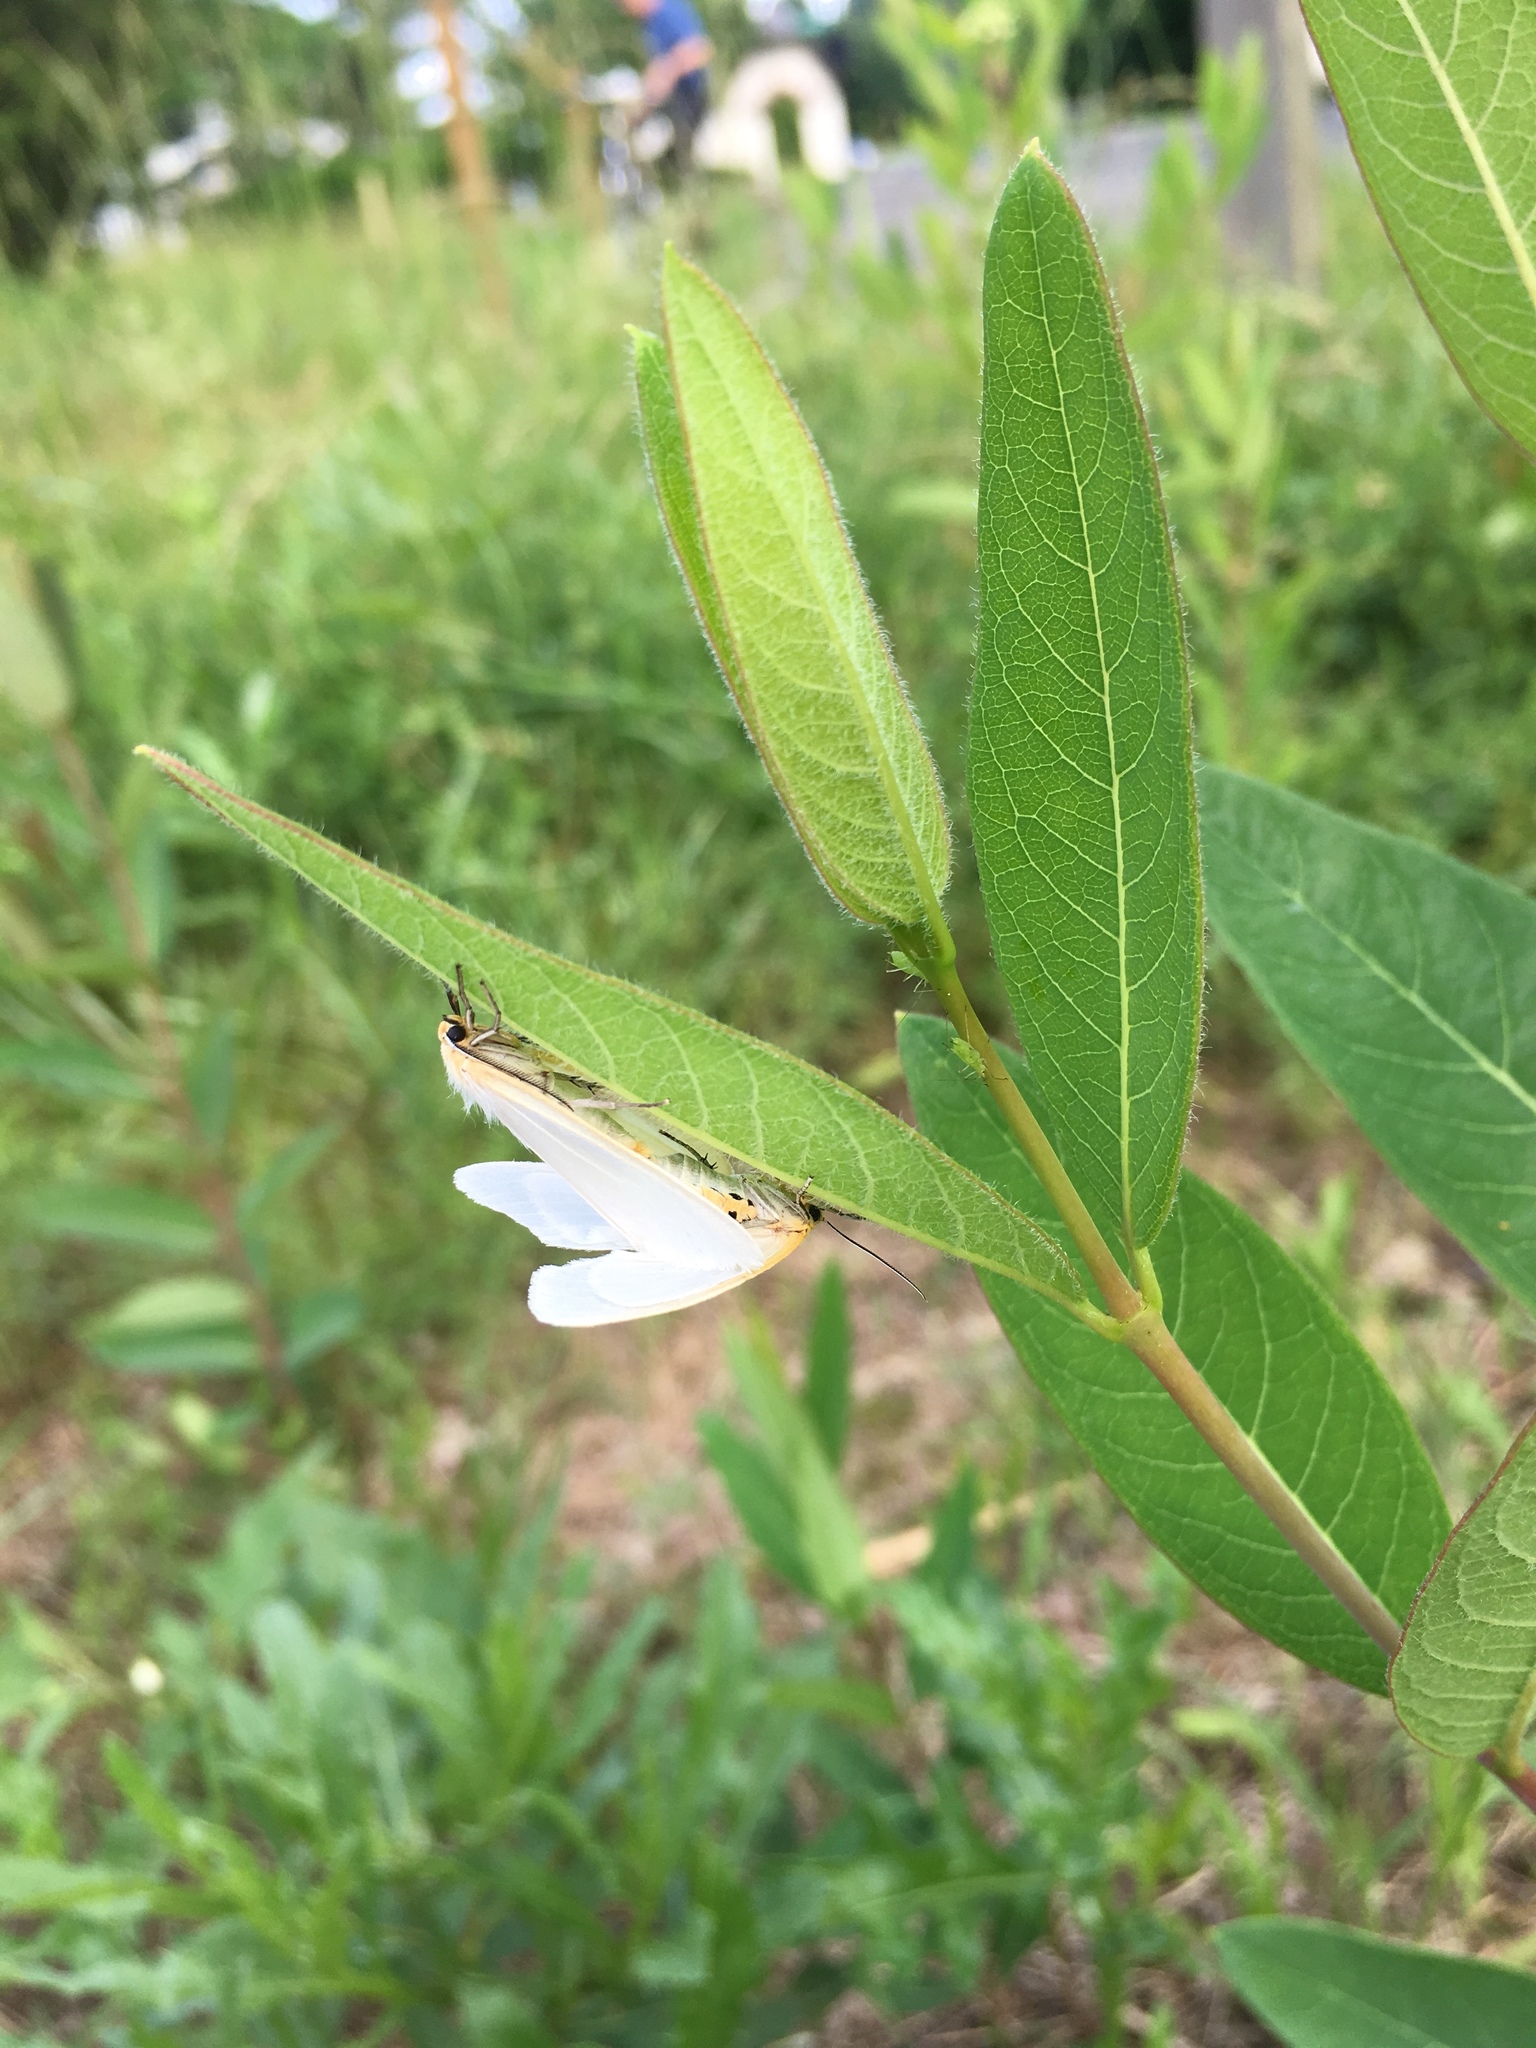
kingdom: Animalia
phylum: Arthropoda
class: Insecta
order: Lepidoptera
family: Erebidae
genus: Cycnia
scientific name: Cycnia tenera
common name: Delicate cycnia moth
